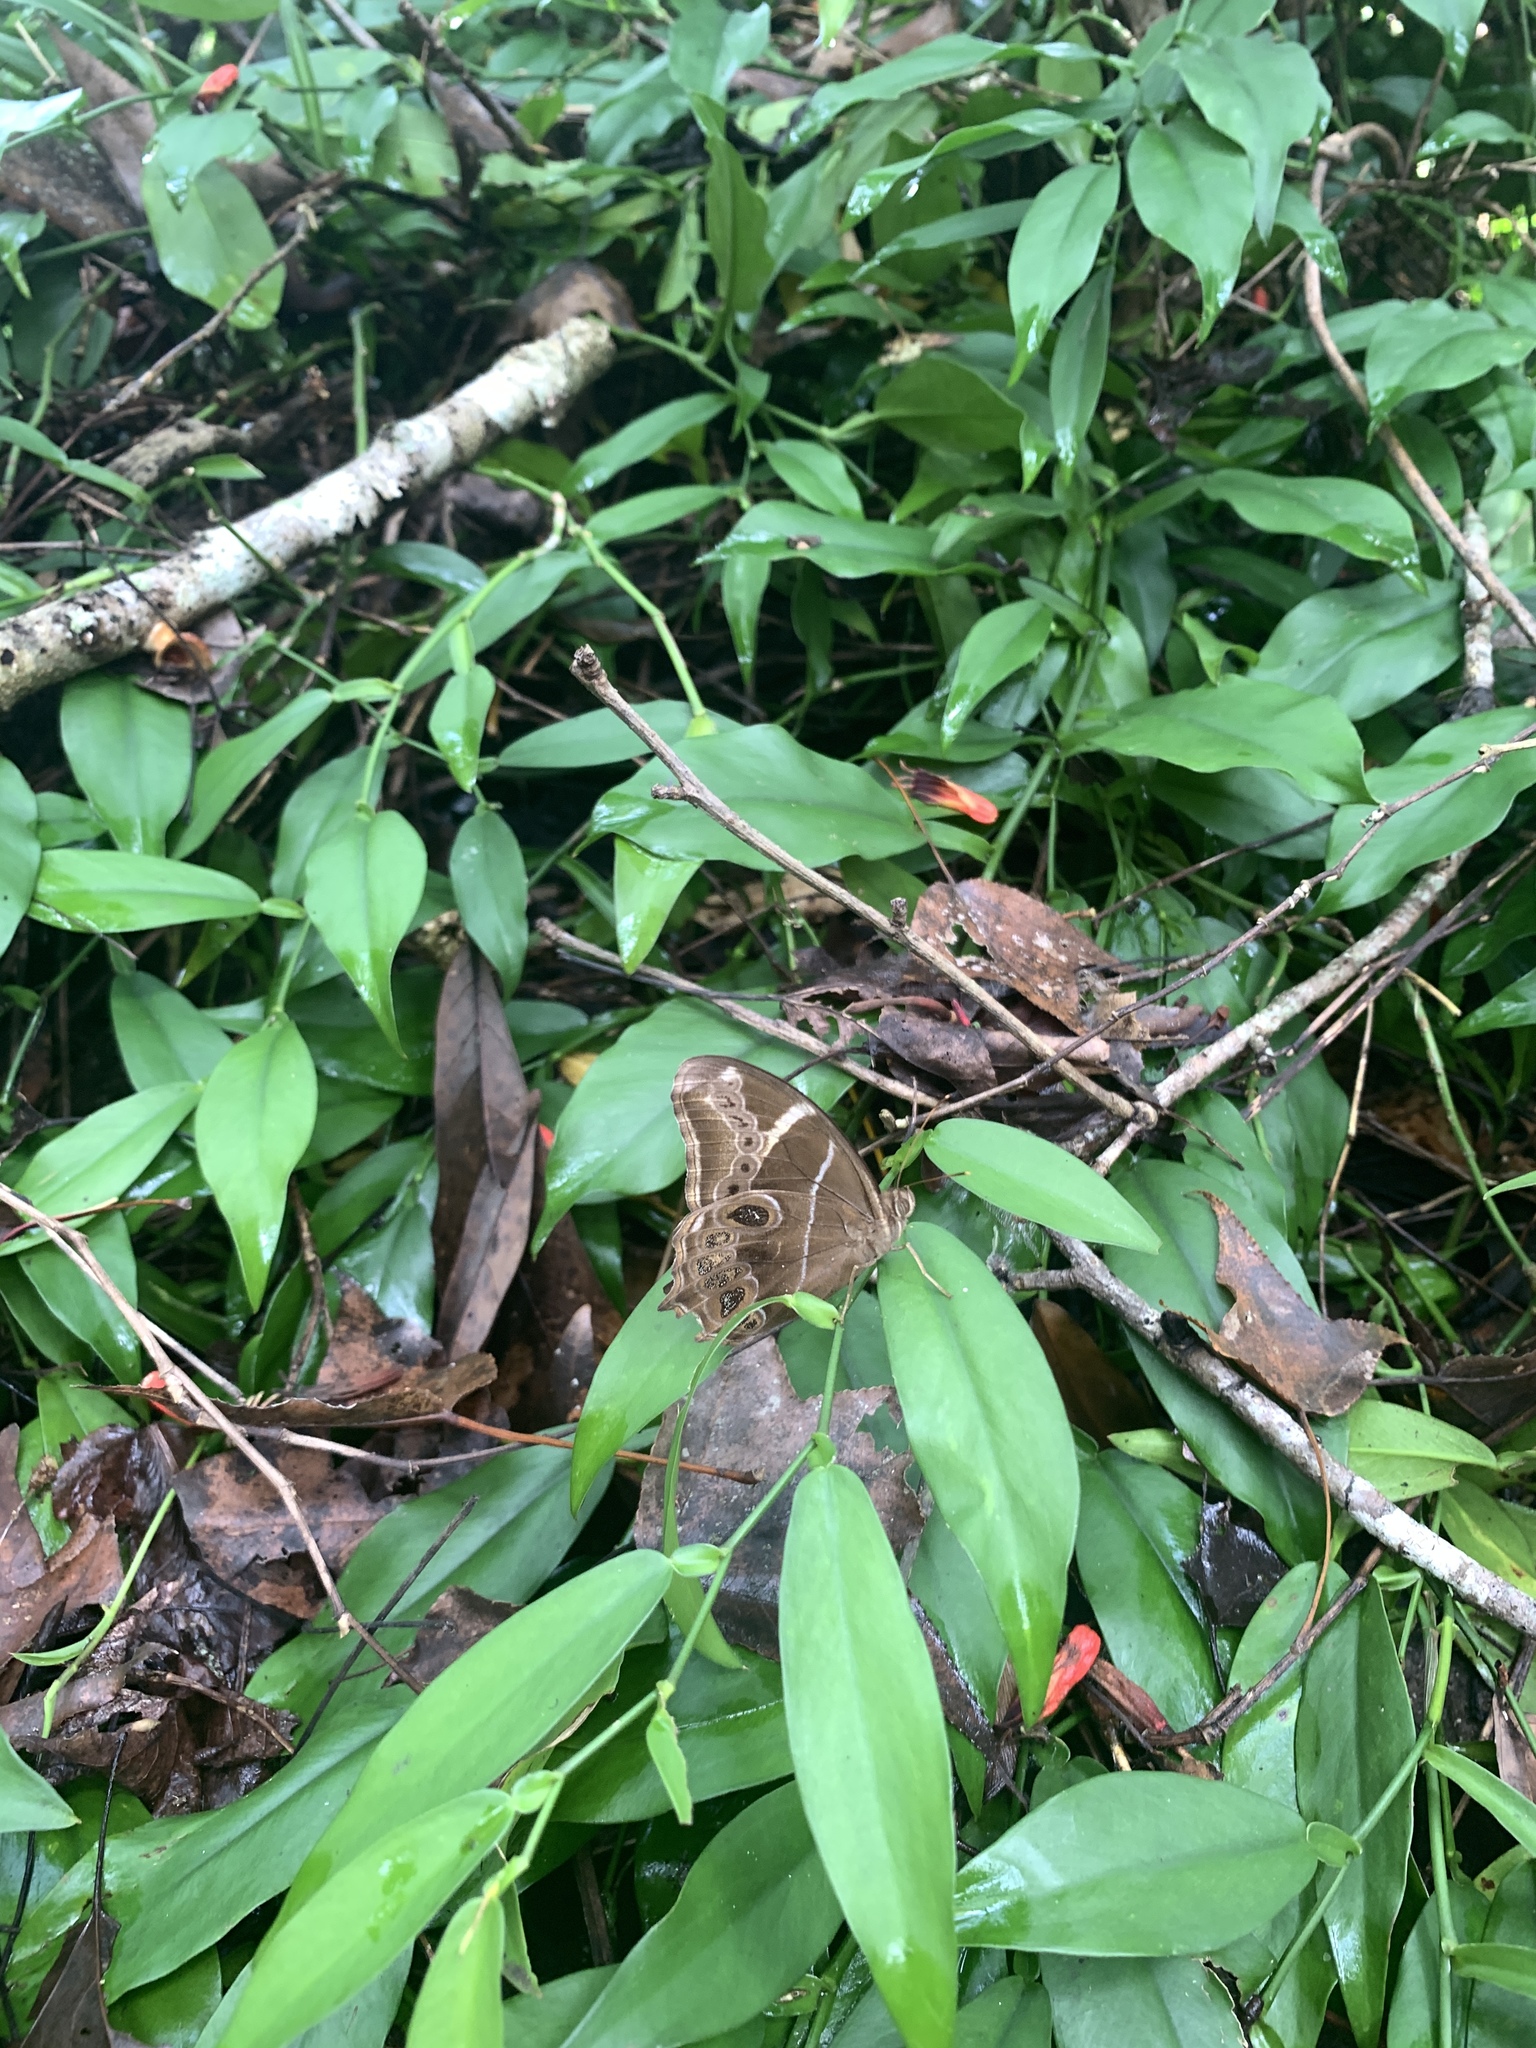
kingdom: Animalia
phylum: Arthropoda
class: Insecta
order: Lepidoptera
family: Nymphalidae
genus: Lethe
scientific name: Lethe europa
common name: Bamboo treebrown
